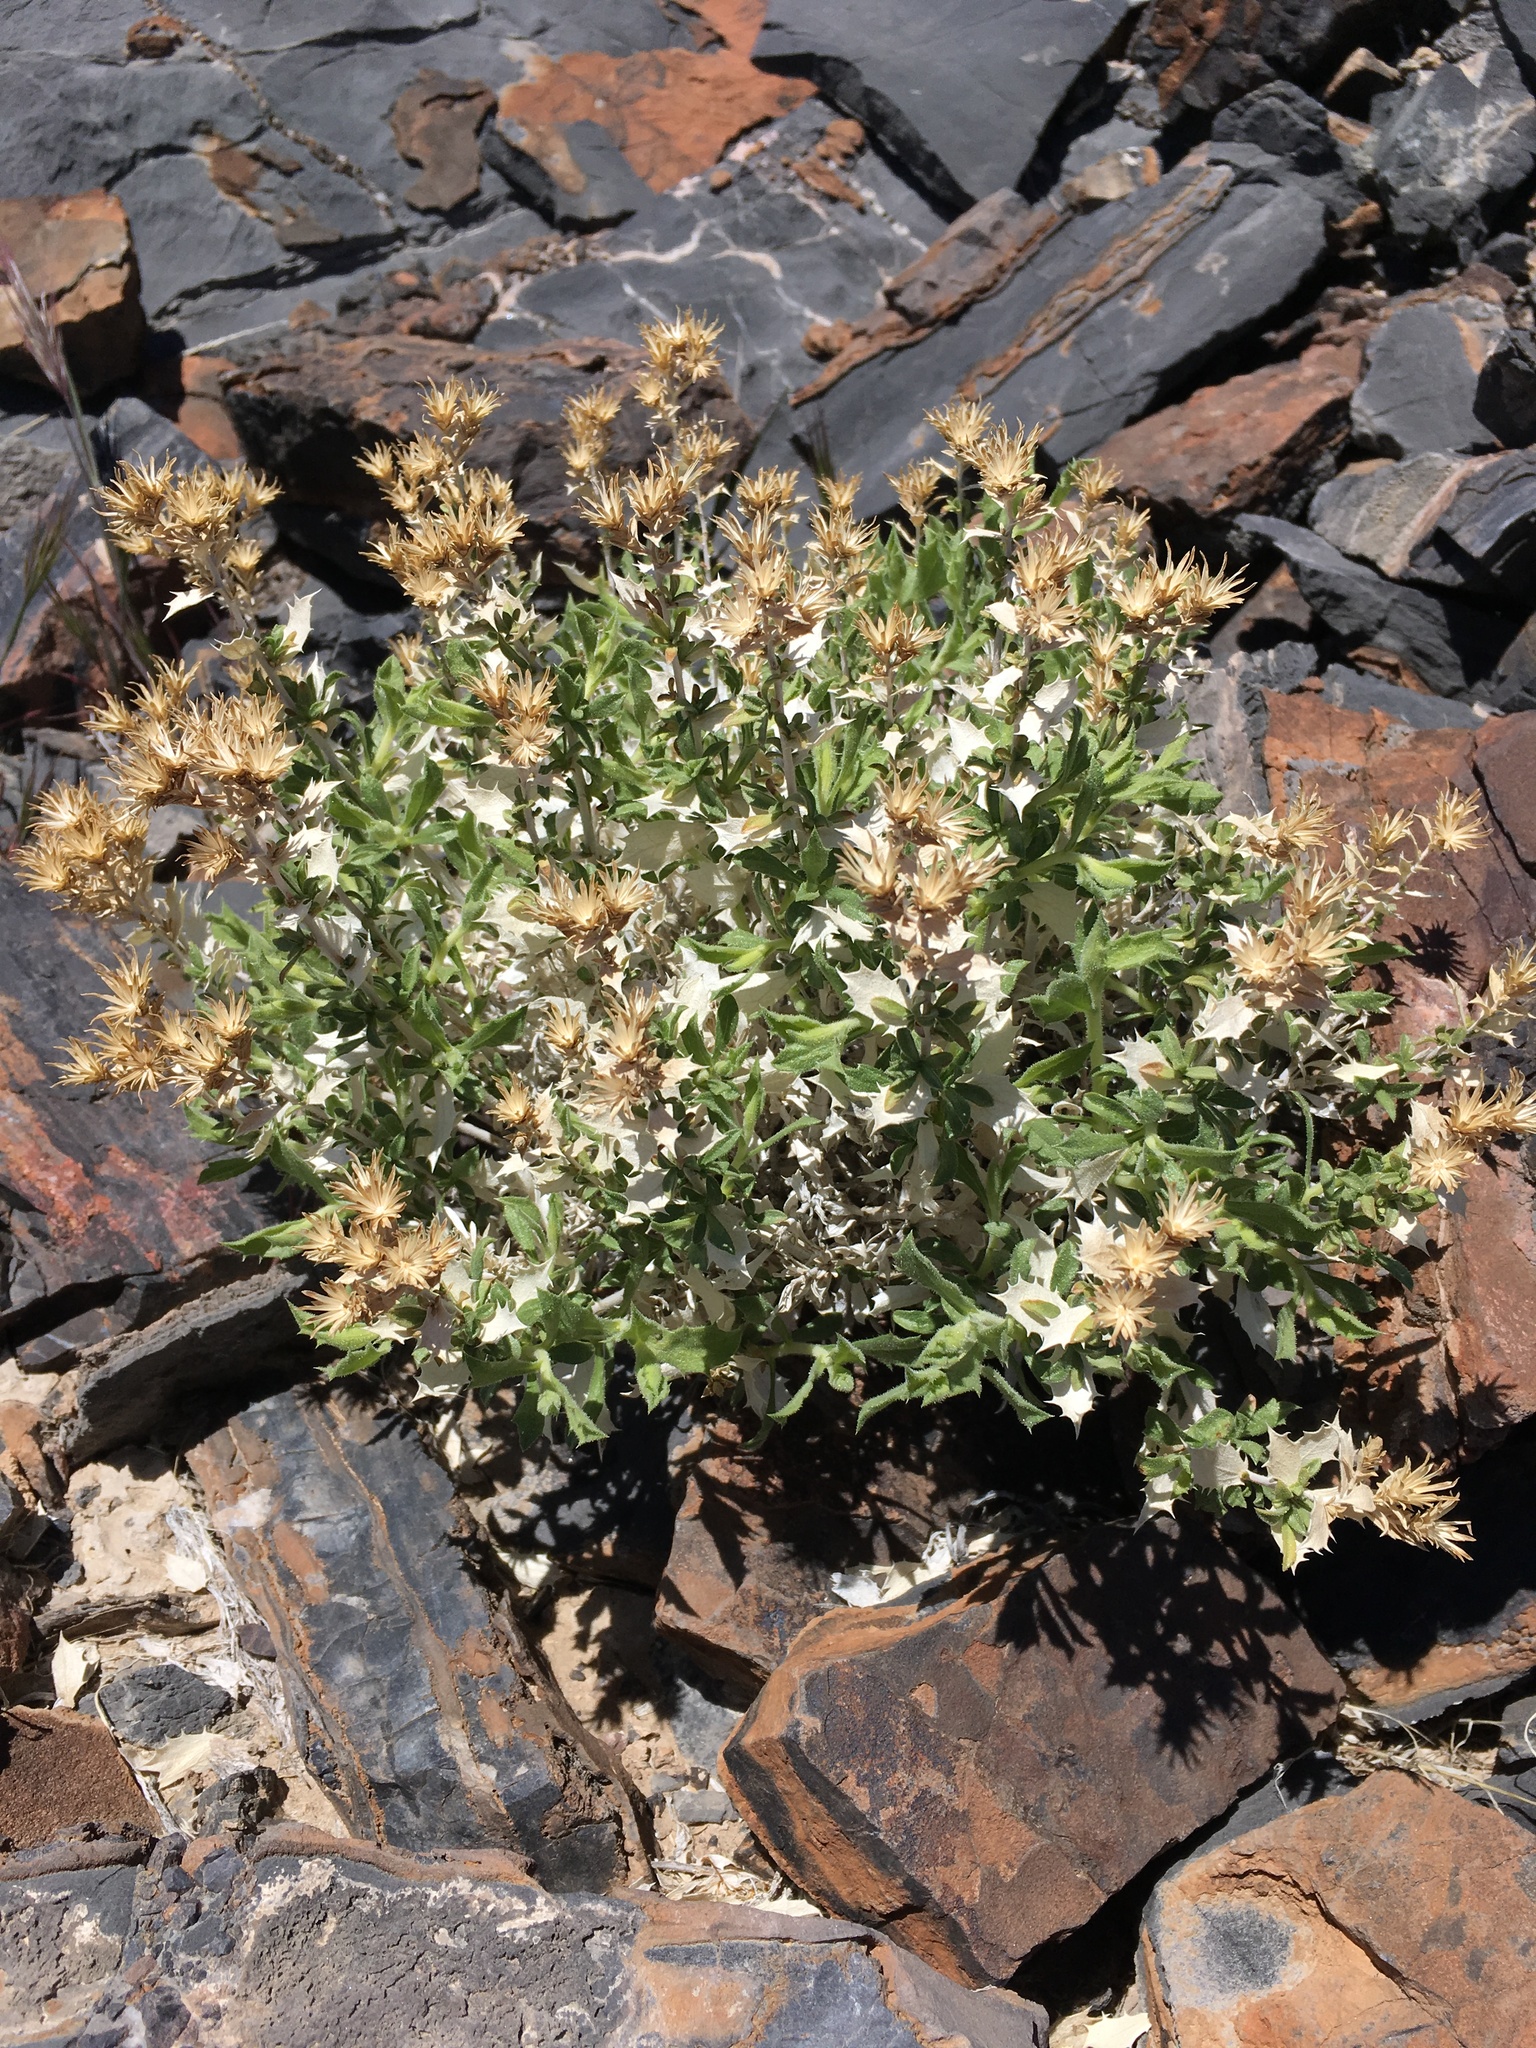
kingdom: Plantae
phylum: Tracheophyta
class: Magnoliopsida
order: Asterales
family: Asteraceae
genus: Brickellia
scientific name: Brickellia atractyloides
